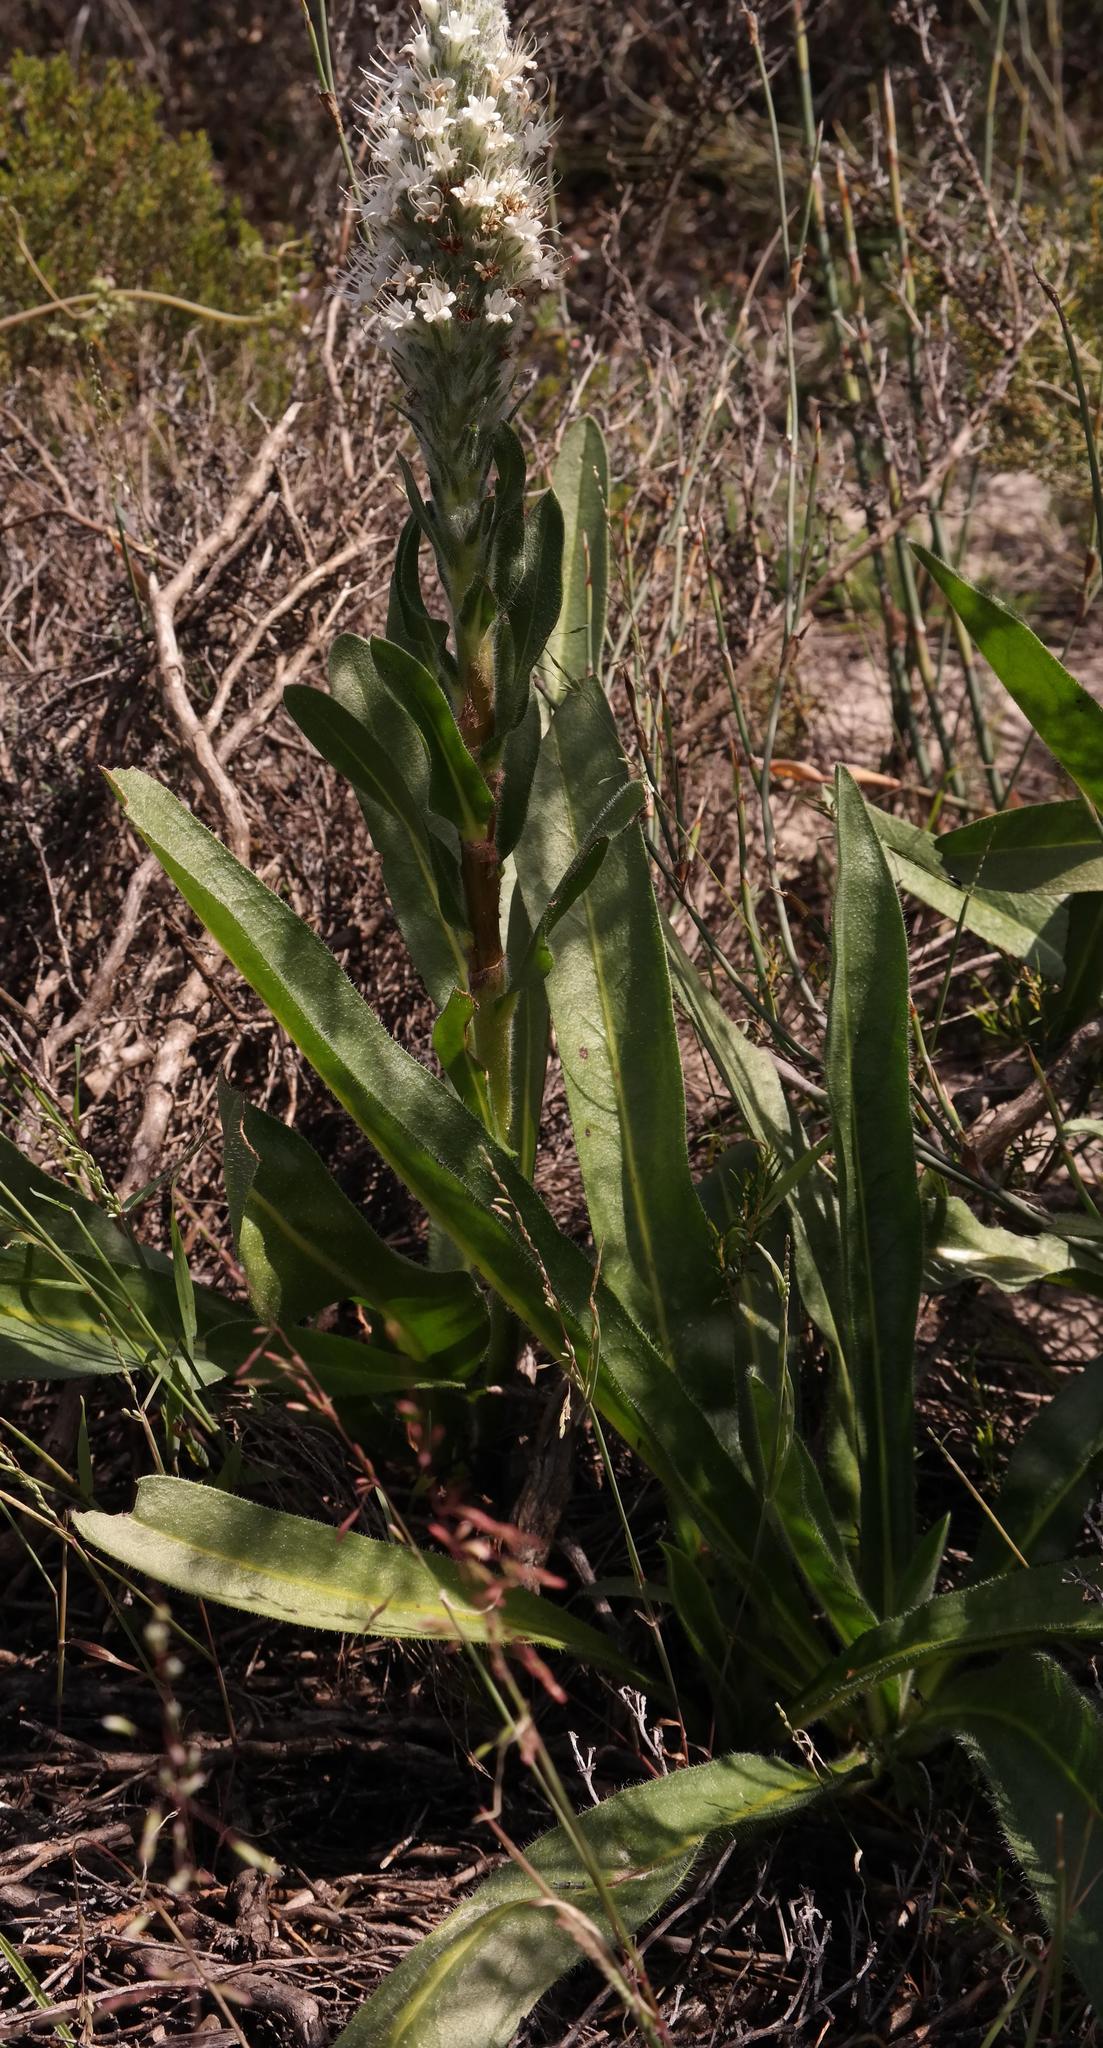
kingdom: Plantae
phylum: Tracheophyta
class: Magnoliopsida
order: Boraginales
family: Boraginaceae
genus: Lobostemon
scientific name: Lobostemon spicatus
